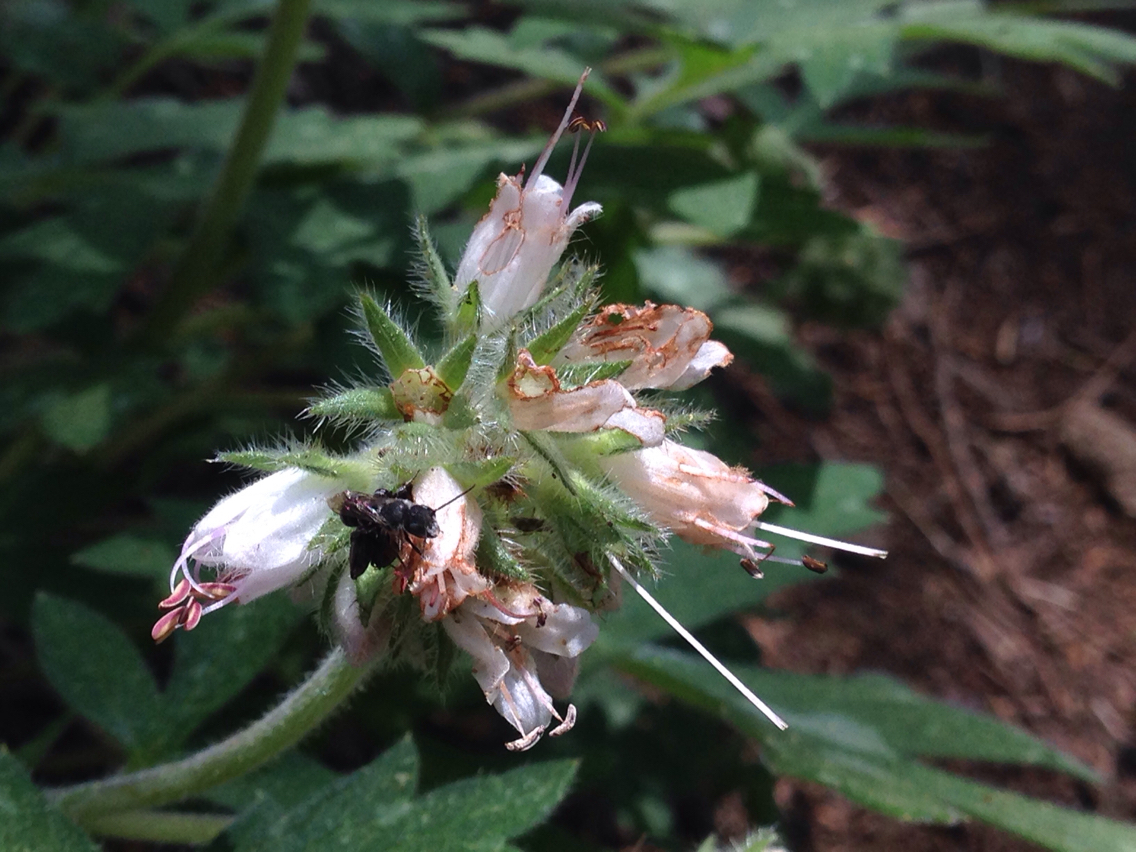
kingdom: Plantae
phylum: Tracheophyta
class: Magnoliopsida
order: Boraginales
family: Hydrophyllaceae
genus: Hydrophyllum
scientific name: Hydrophyllum occidentale
